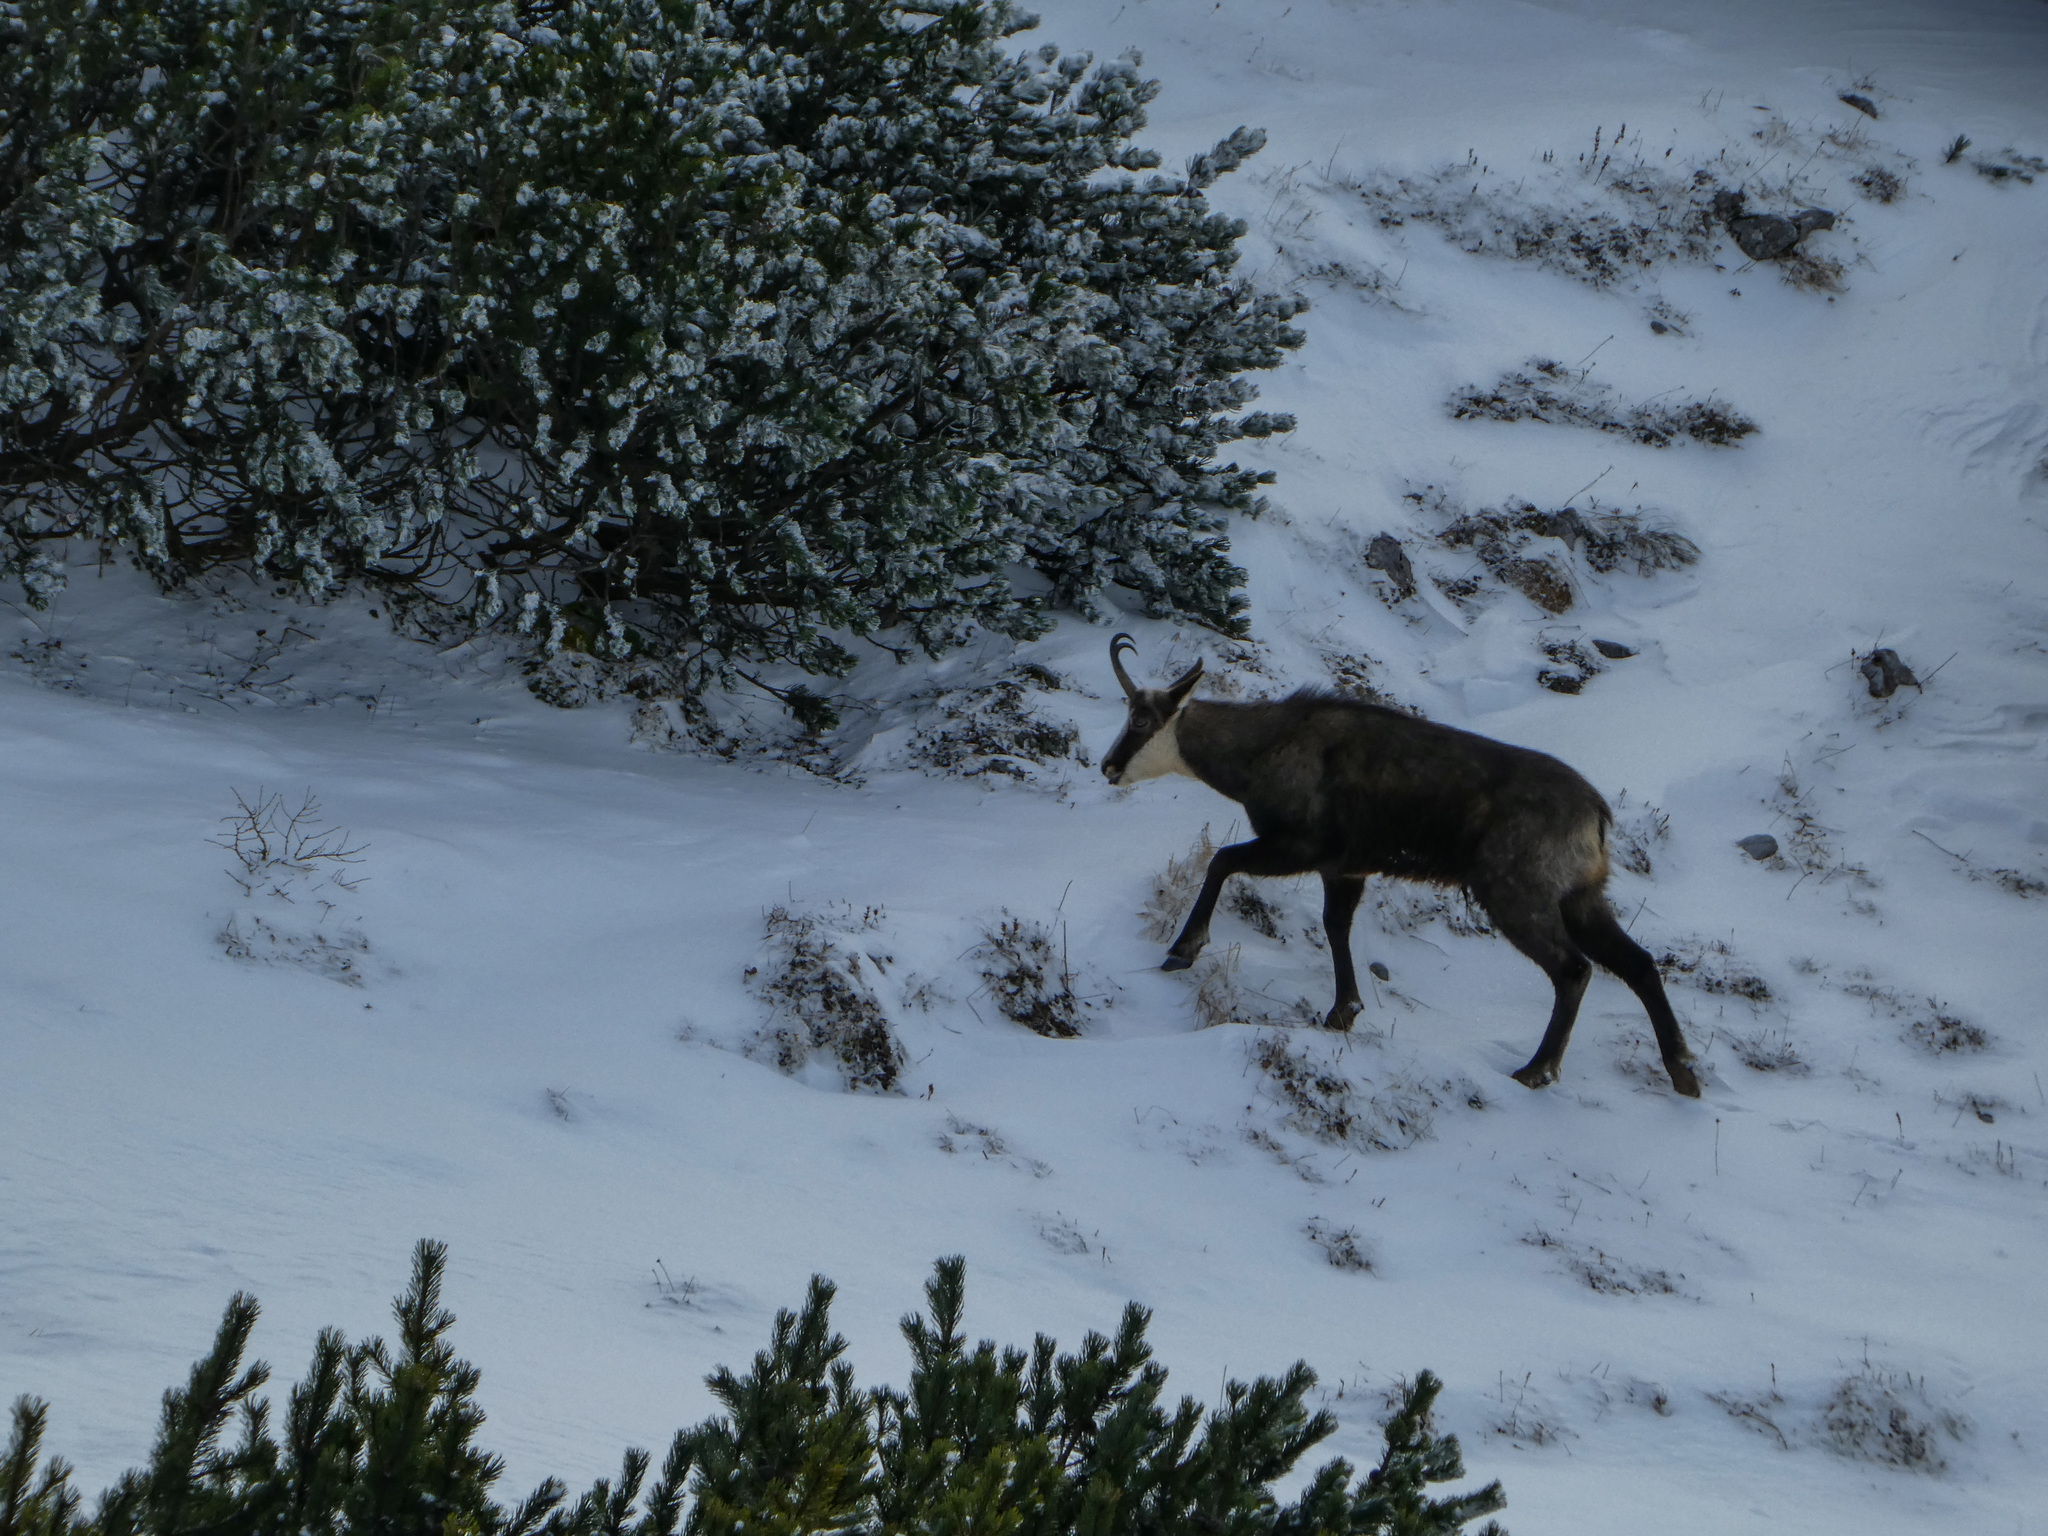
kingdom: Animalia
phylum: Chordata
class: Mammalia
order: Artiodactyla
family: Bovidae
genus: Rupicapra
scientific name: Rupicapra rupicapra
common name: Chamois
